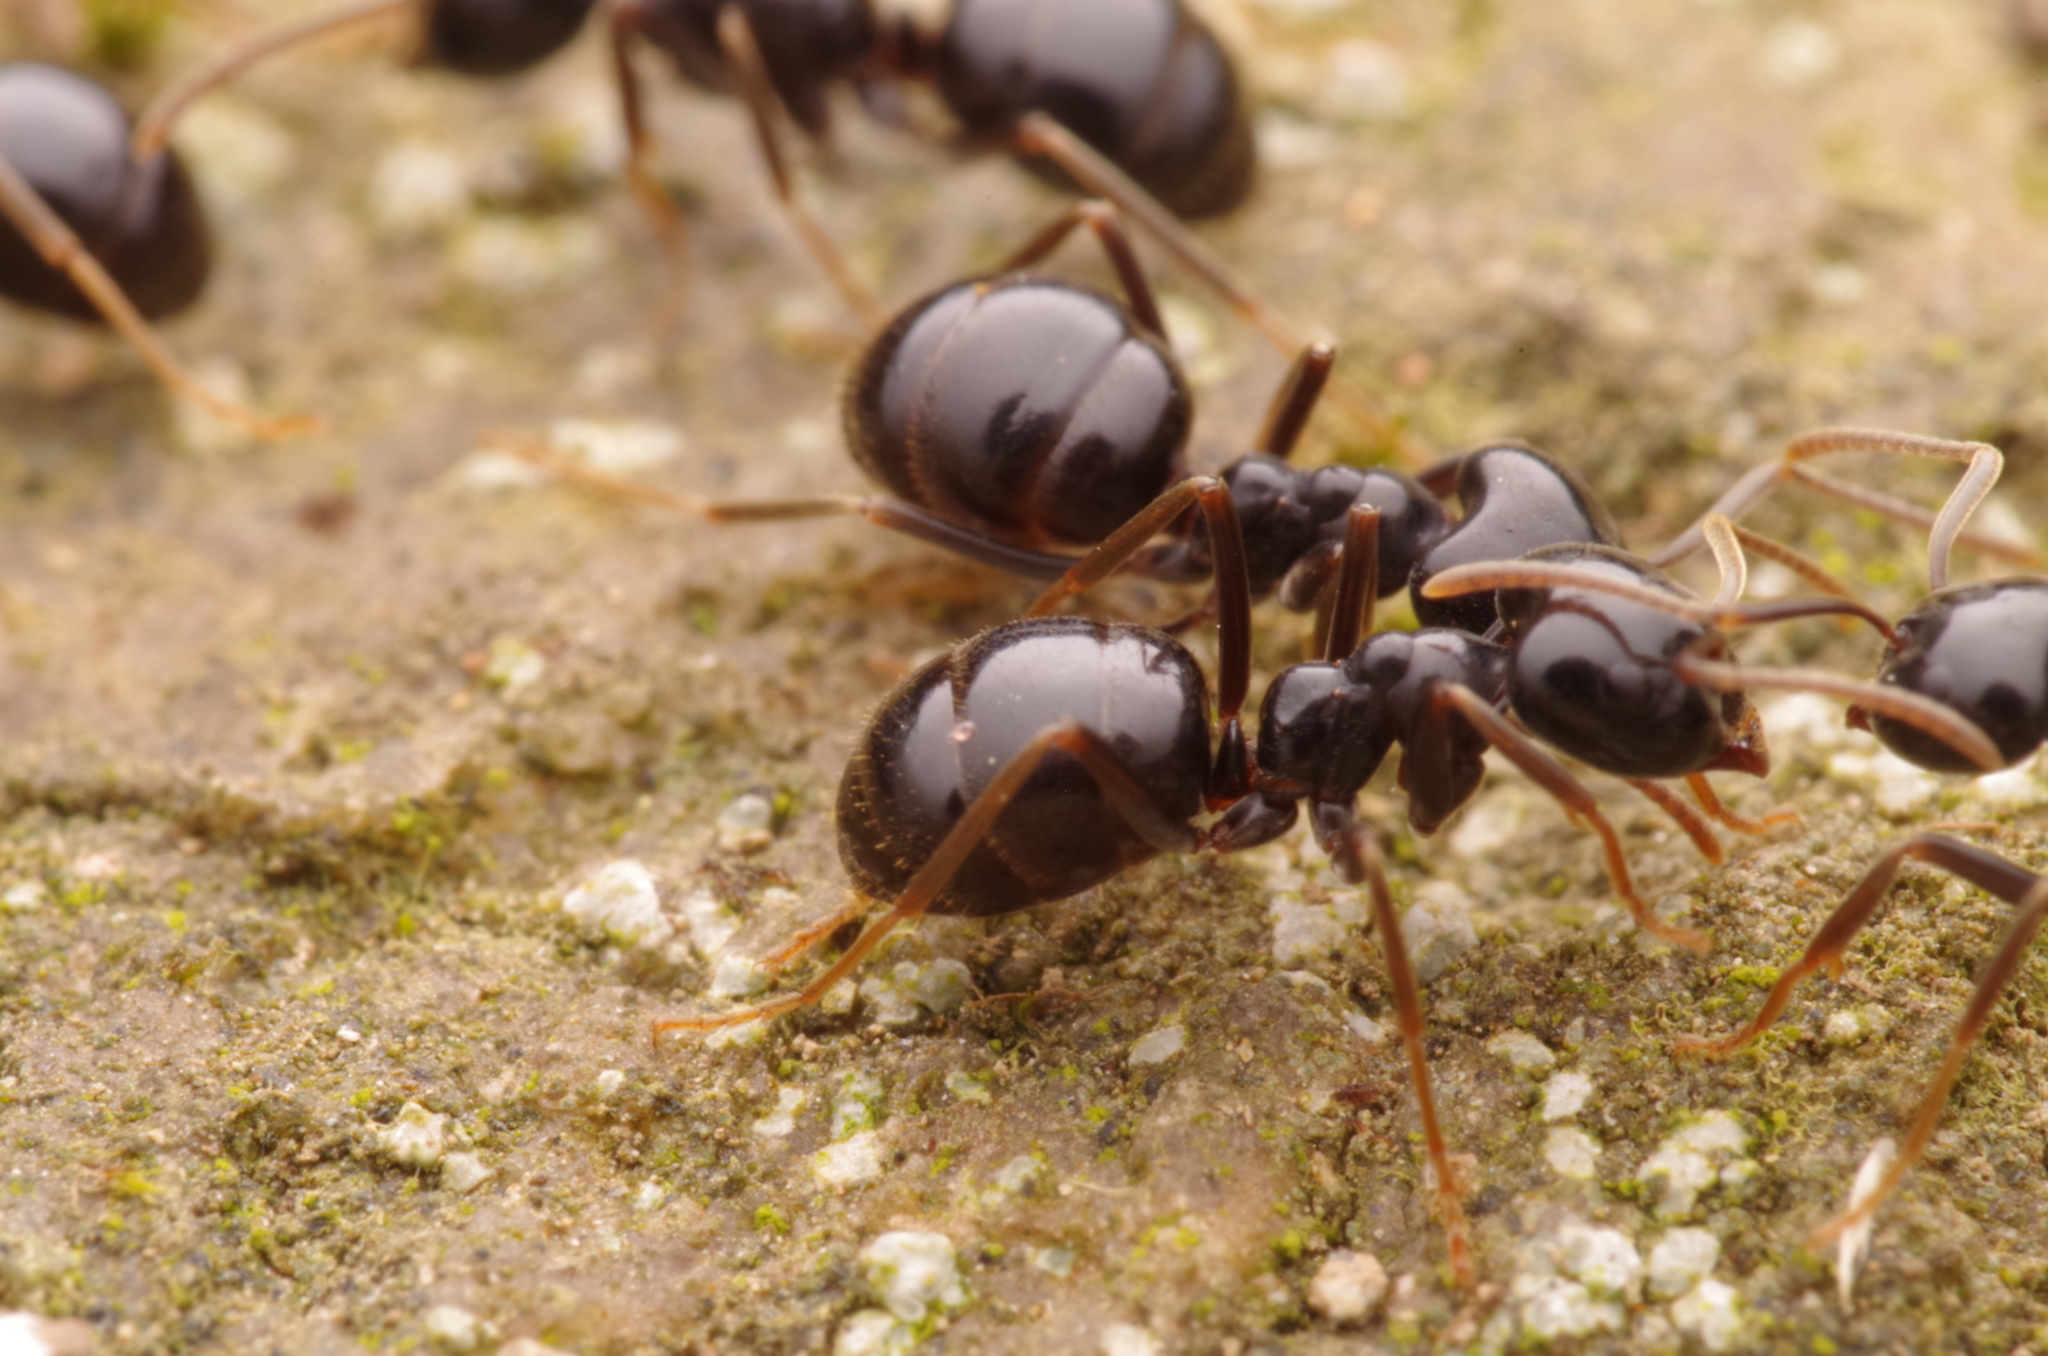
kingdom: Animalia
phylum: Arthropoda
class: Insecta
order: Hymenoptera
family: Formicidae
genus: Lasius
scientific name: Lasius fuliginosus
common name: Jet ant
